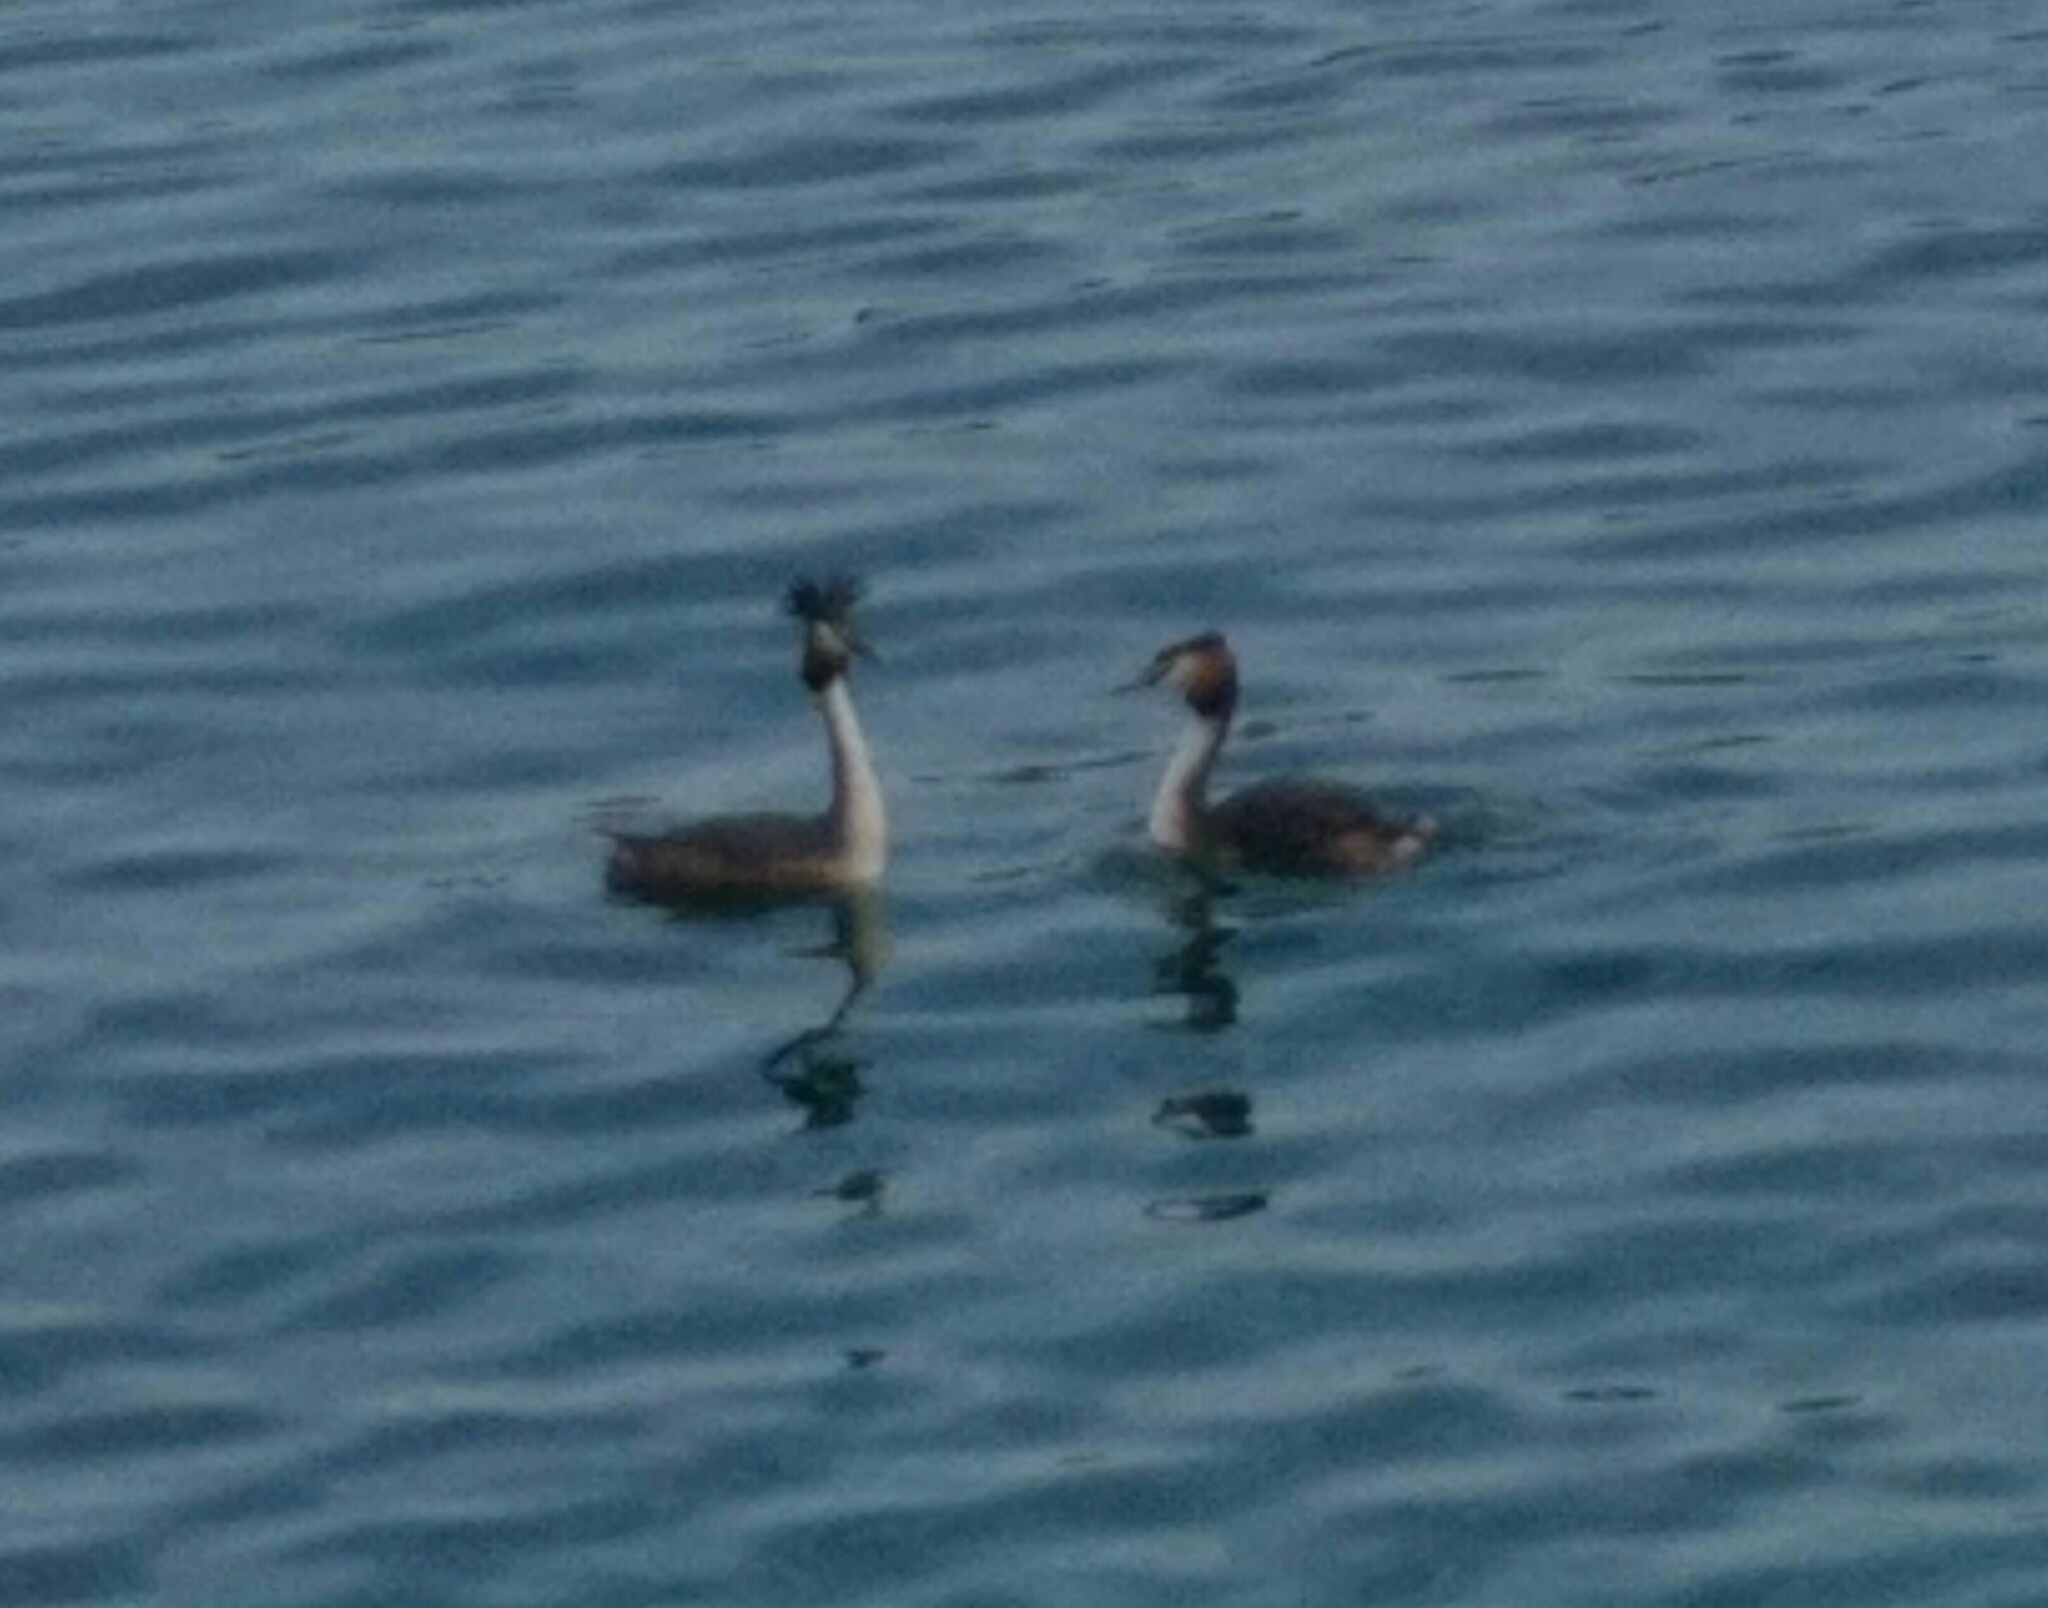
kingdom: Animalia
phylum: Chordata
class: Aves
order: Podicipediformes
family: Podicipedidae
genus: Podiceps
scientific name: Podiceps cristatus
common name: Great crested grebe
